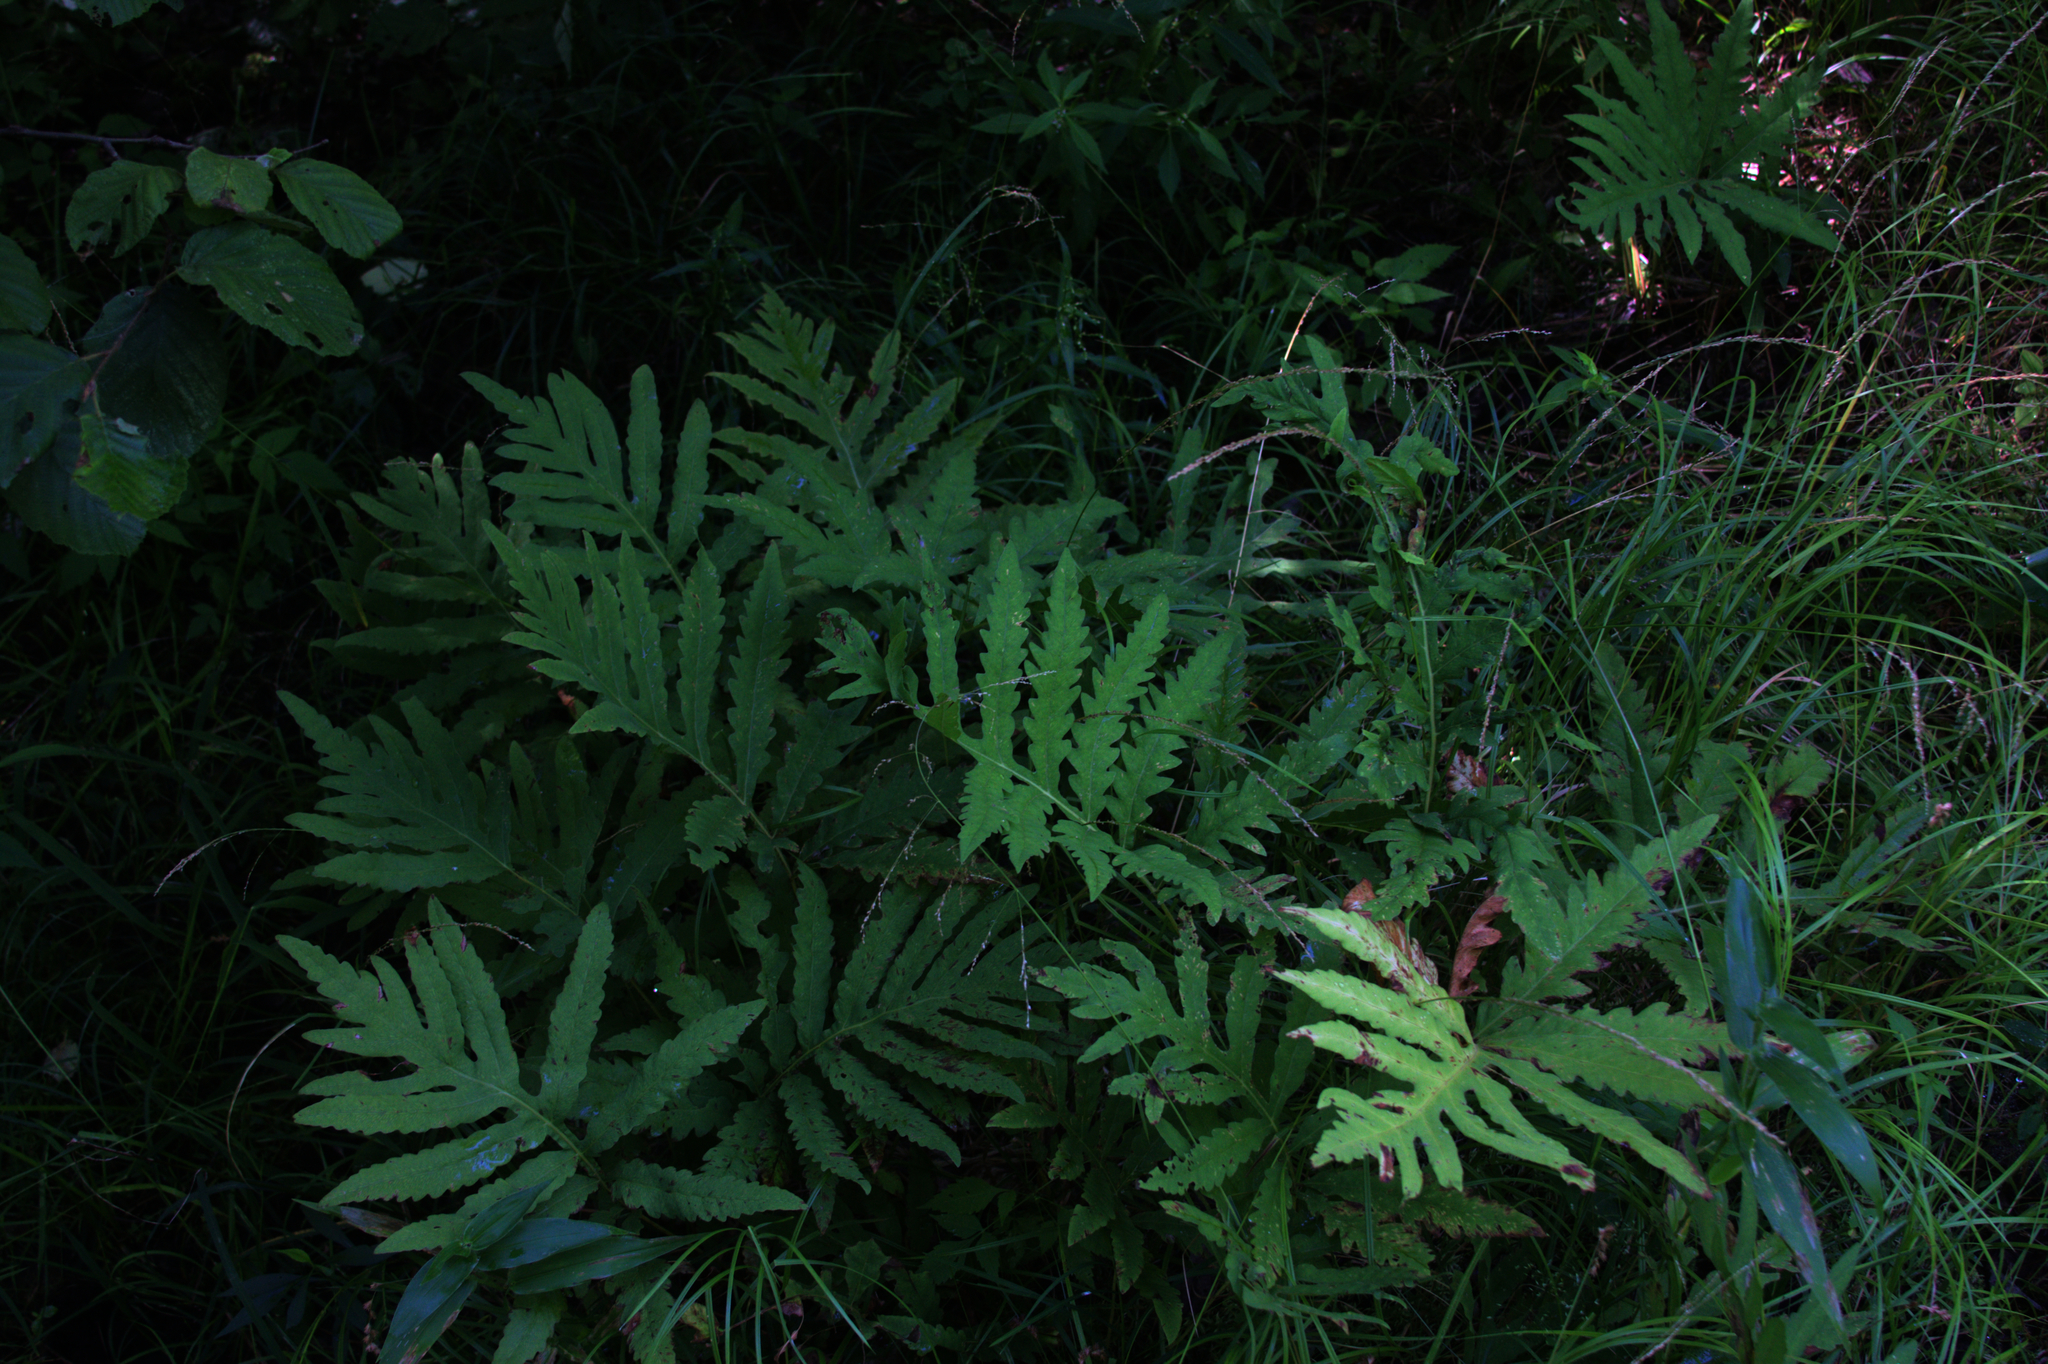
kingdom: Plantae
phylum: Tracheophyta
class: Polypodiopsida
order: Polypodiales
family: Onocleaceae
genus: Onoclea
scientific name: Onoclea sensibilis
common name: Sensitive fern
